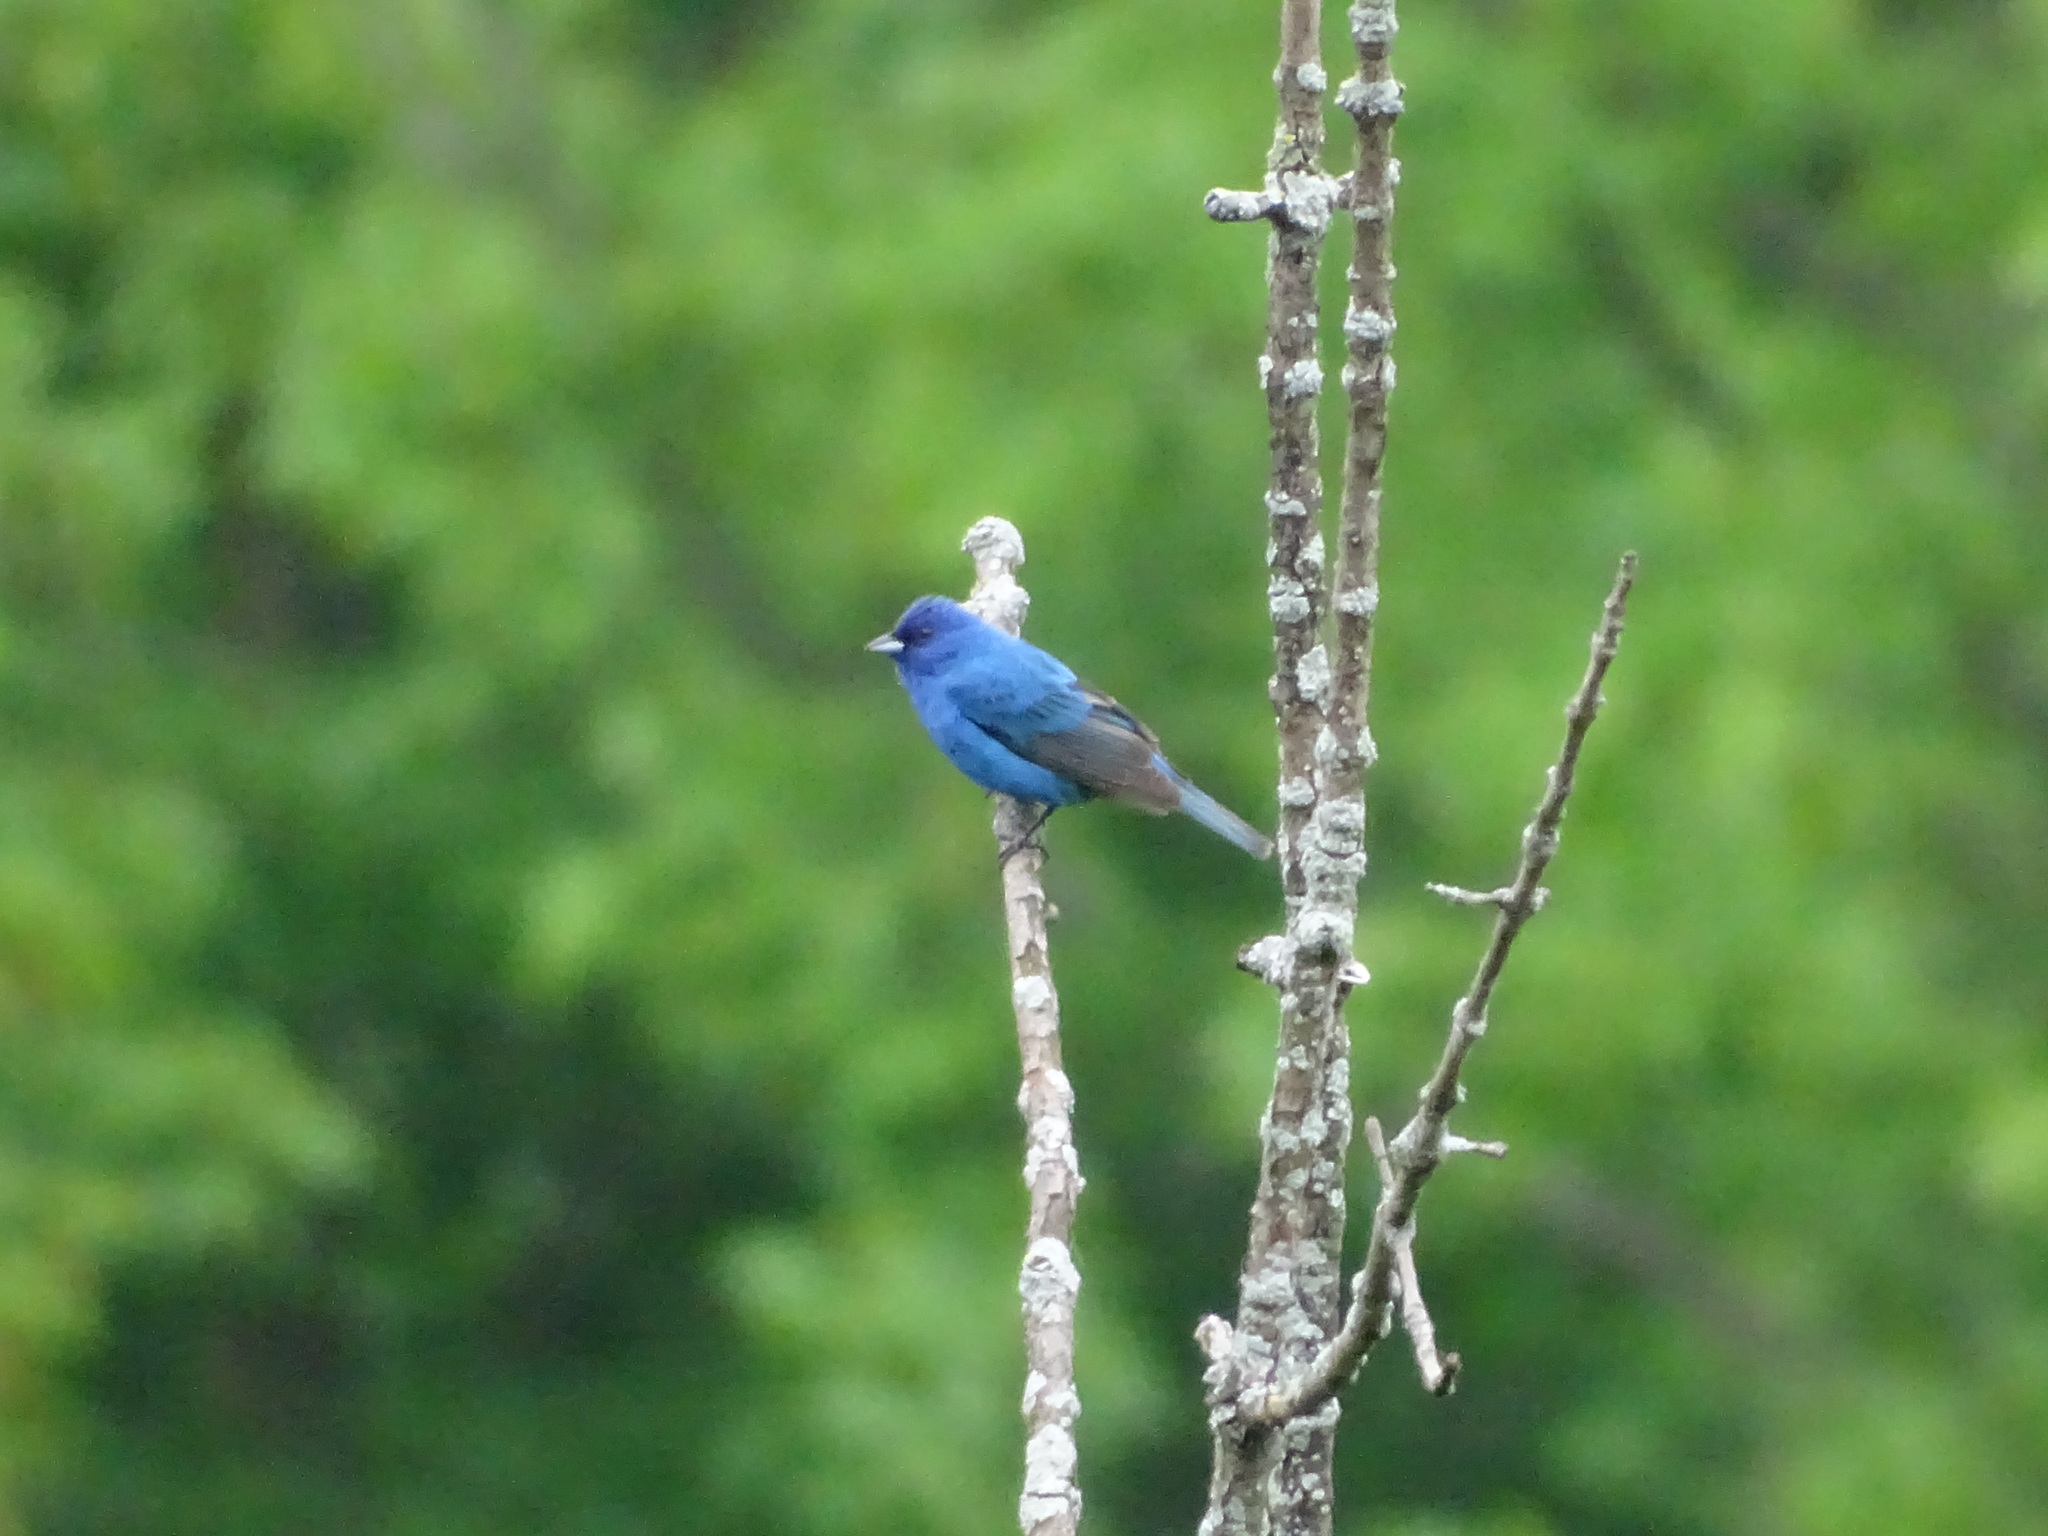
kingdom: Animalia
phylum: Chordata
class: Aves
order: Passeriformes
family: Cardinalidae
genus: Passerina
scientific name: Passerina cyanea
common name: Indigo bunting
